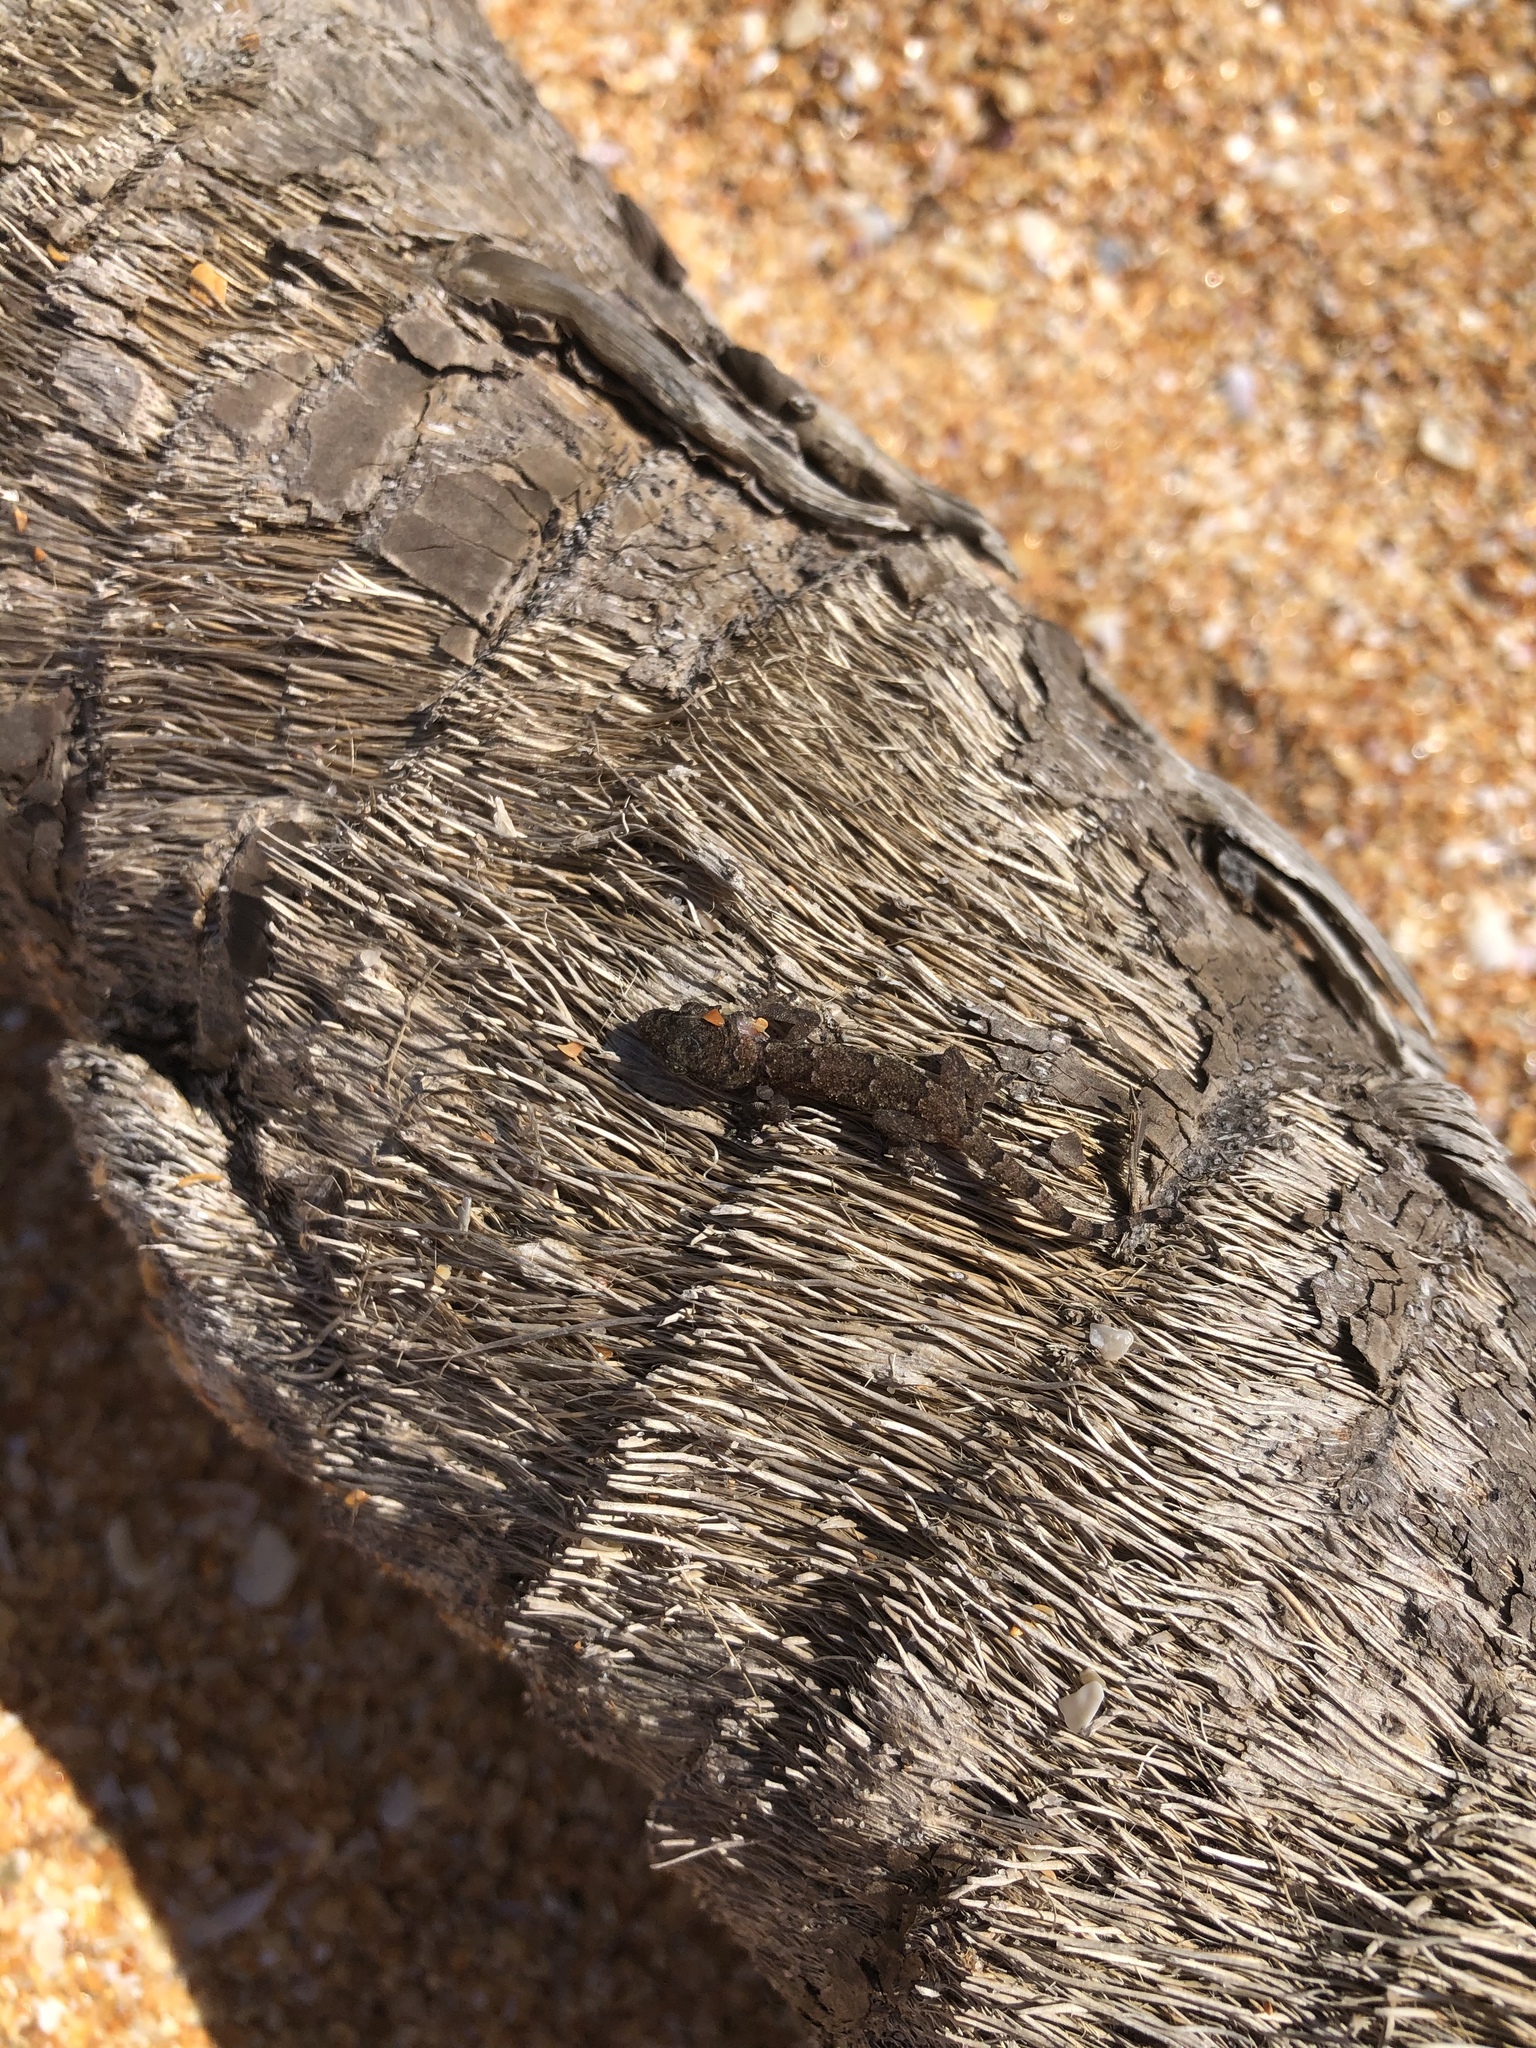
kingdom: Animalia
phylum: Chordata
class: Squamata
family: Gekkonidae
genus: Hemidactylus
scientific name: Hemidactylus mabouia
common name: House gecko
